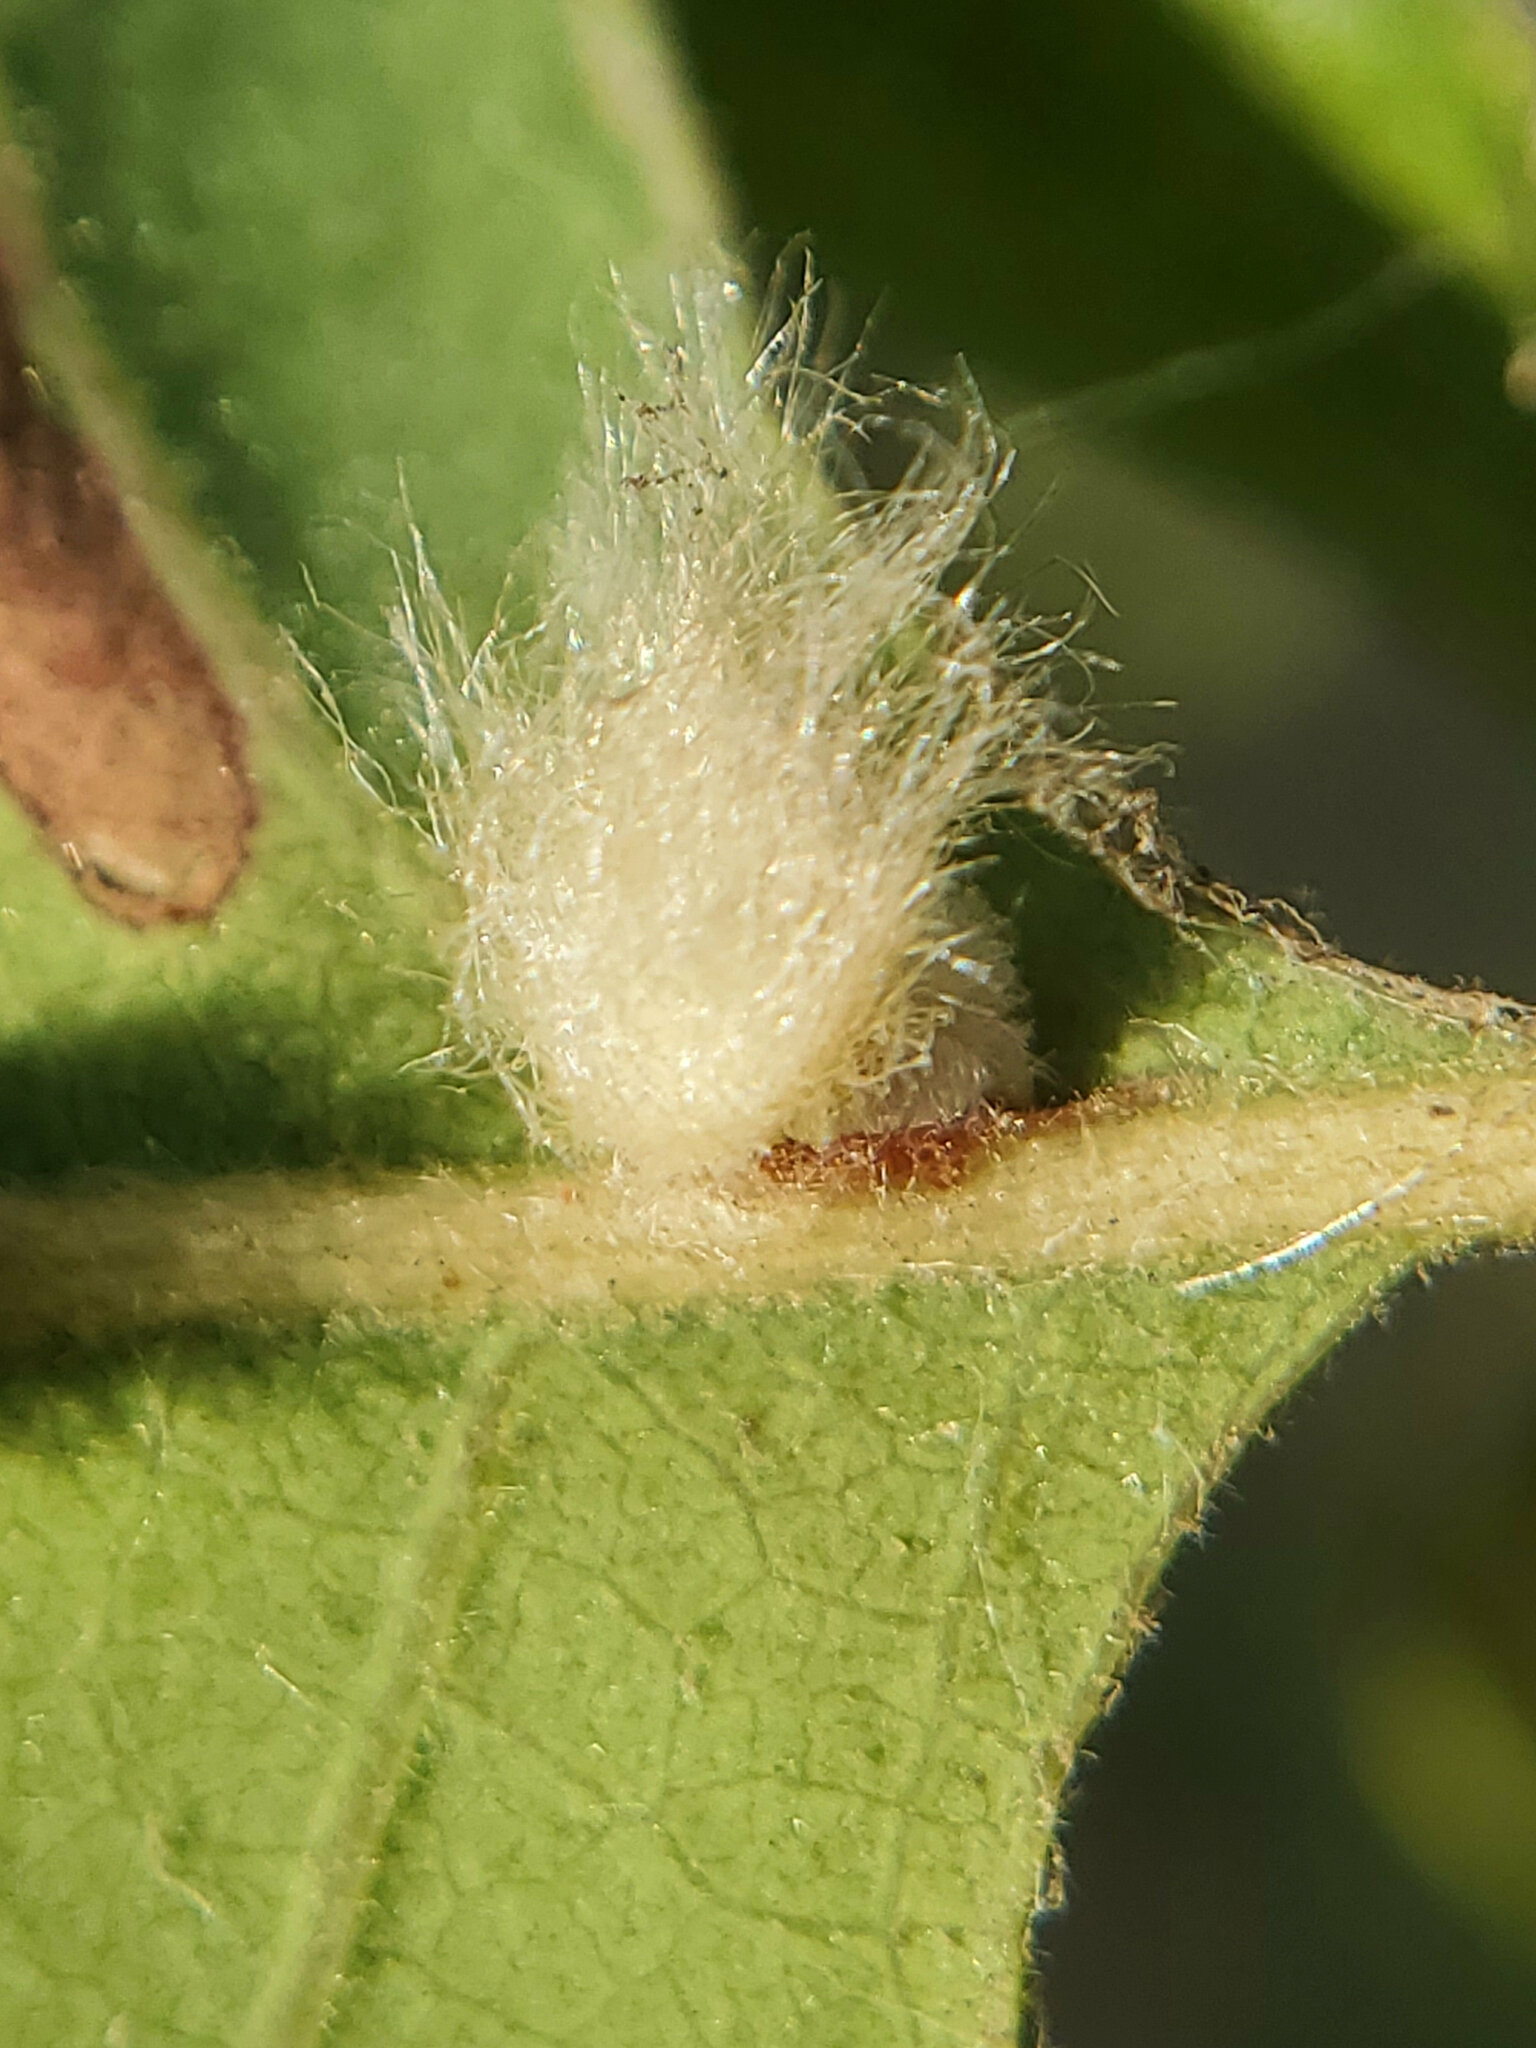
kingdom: Animalia
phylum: Arthropoda
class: Insecta
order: Hymenoptera
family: Cynipidae
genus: Andricus
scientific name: Andricus Druon fullawayi
